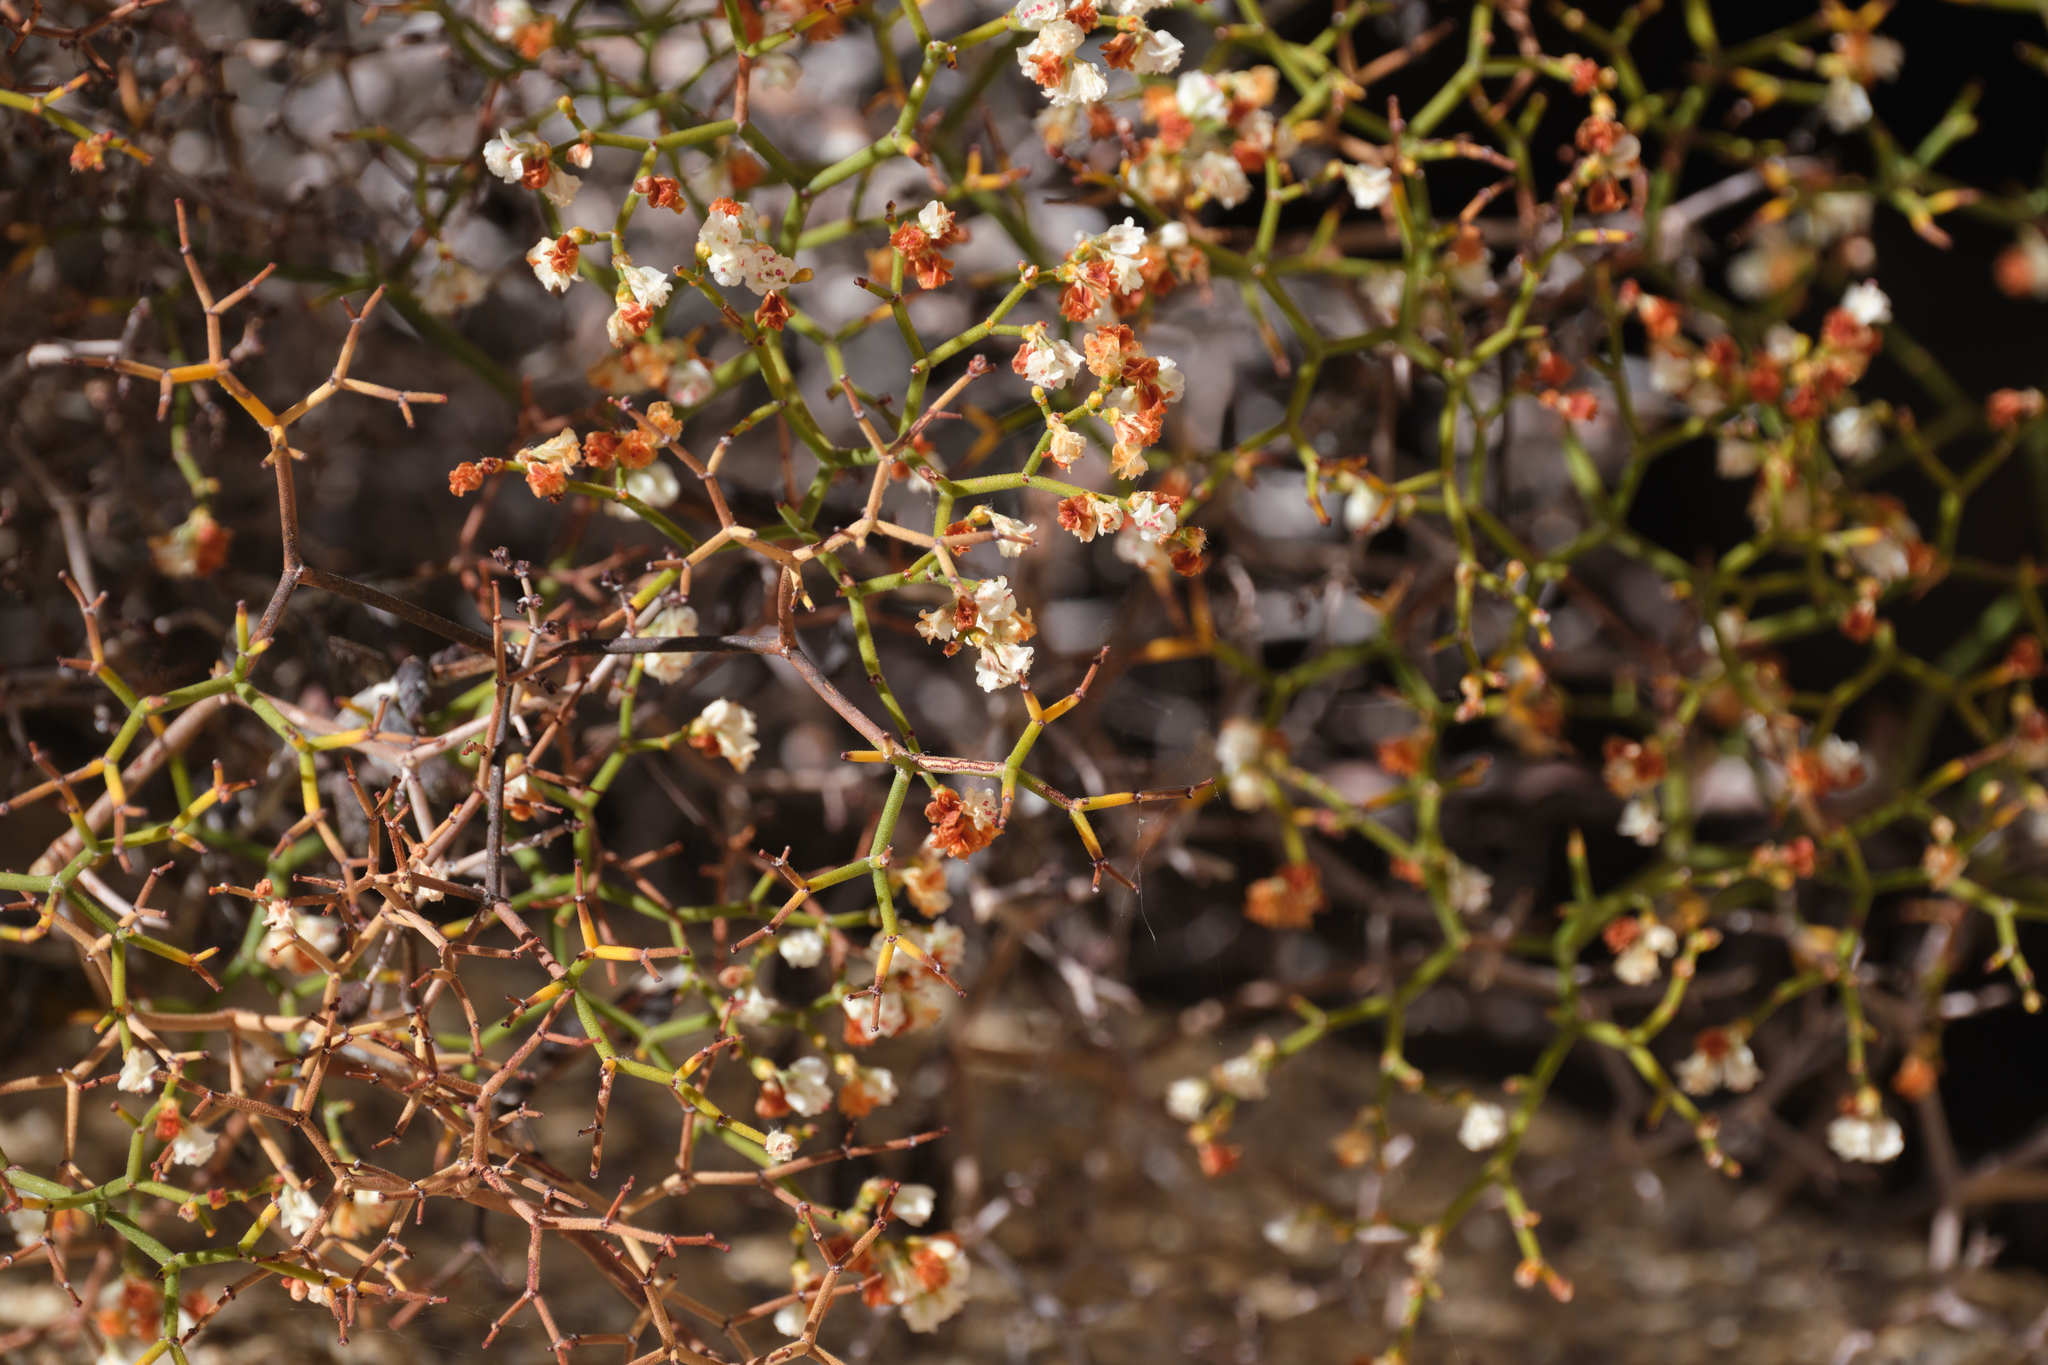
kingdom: Plantae
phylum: Tracheophyta
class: Magnoliopsida
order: Caryophyllales
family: Polygonaceae
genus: Eriogonum
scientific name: Eriogonum heermannii
